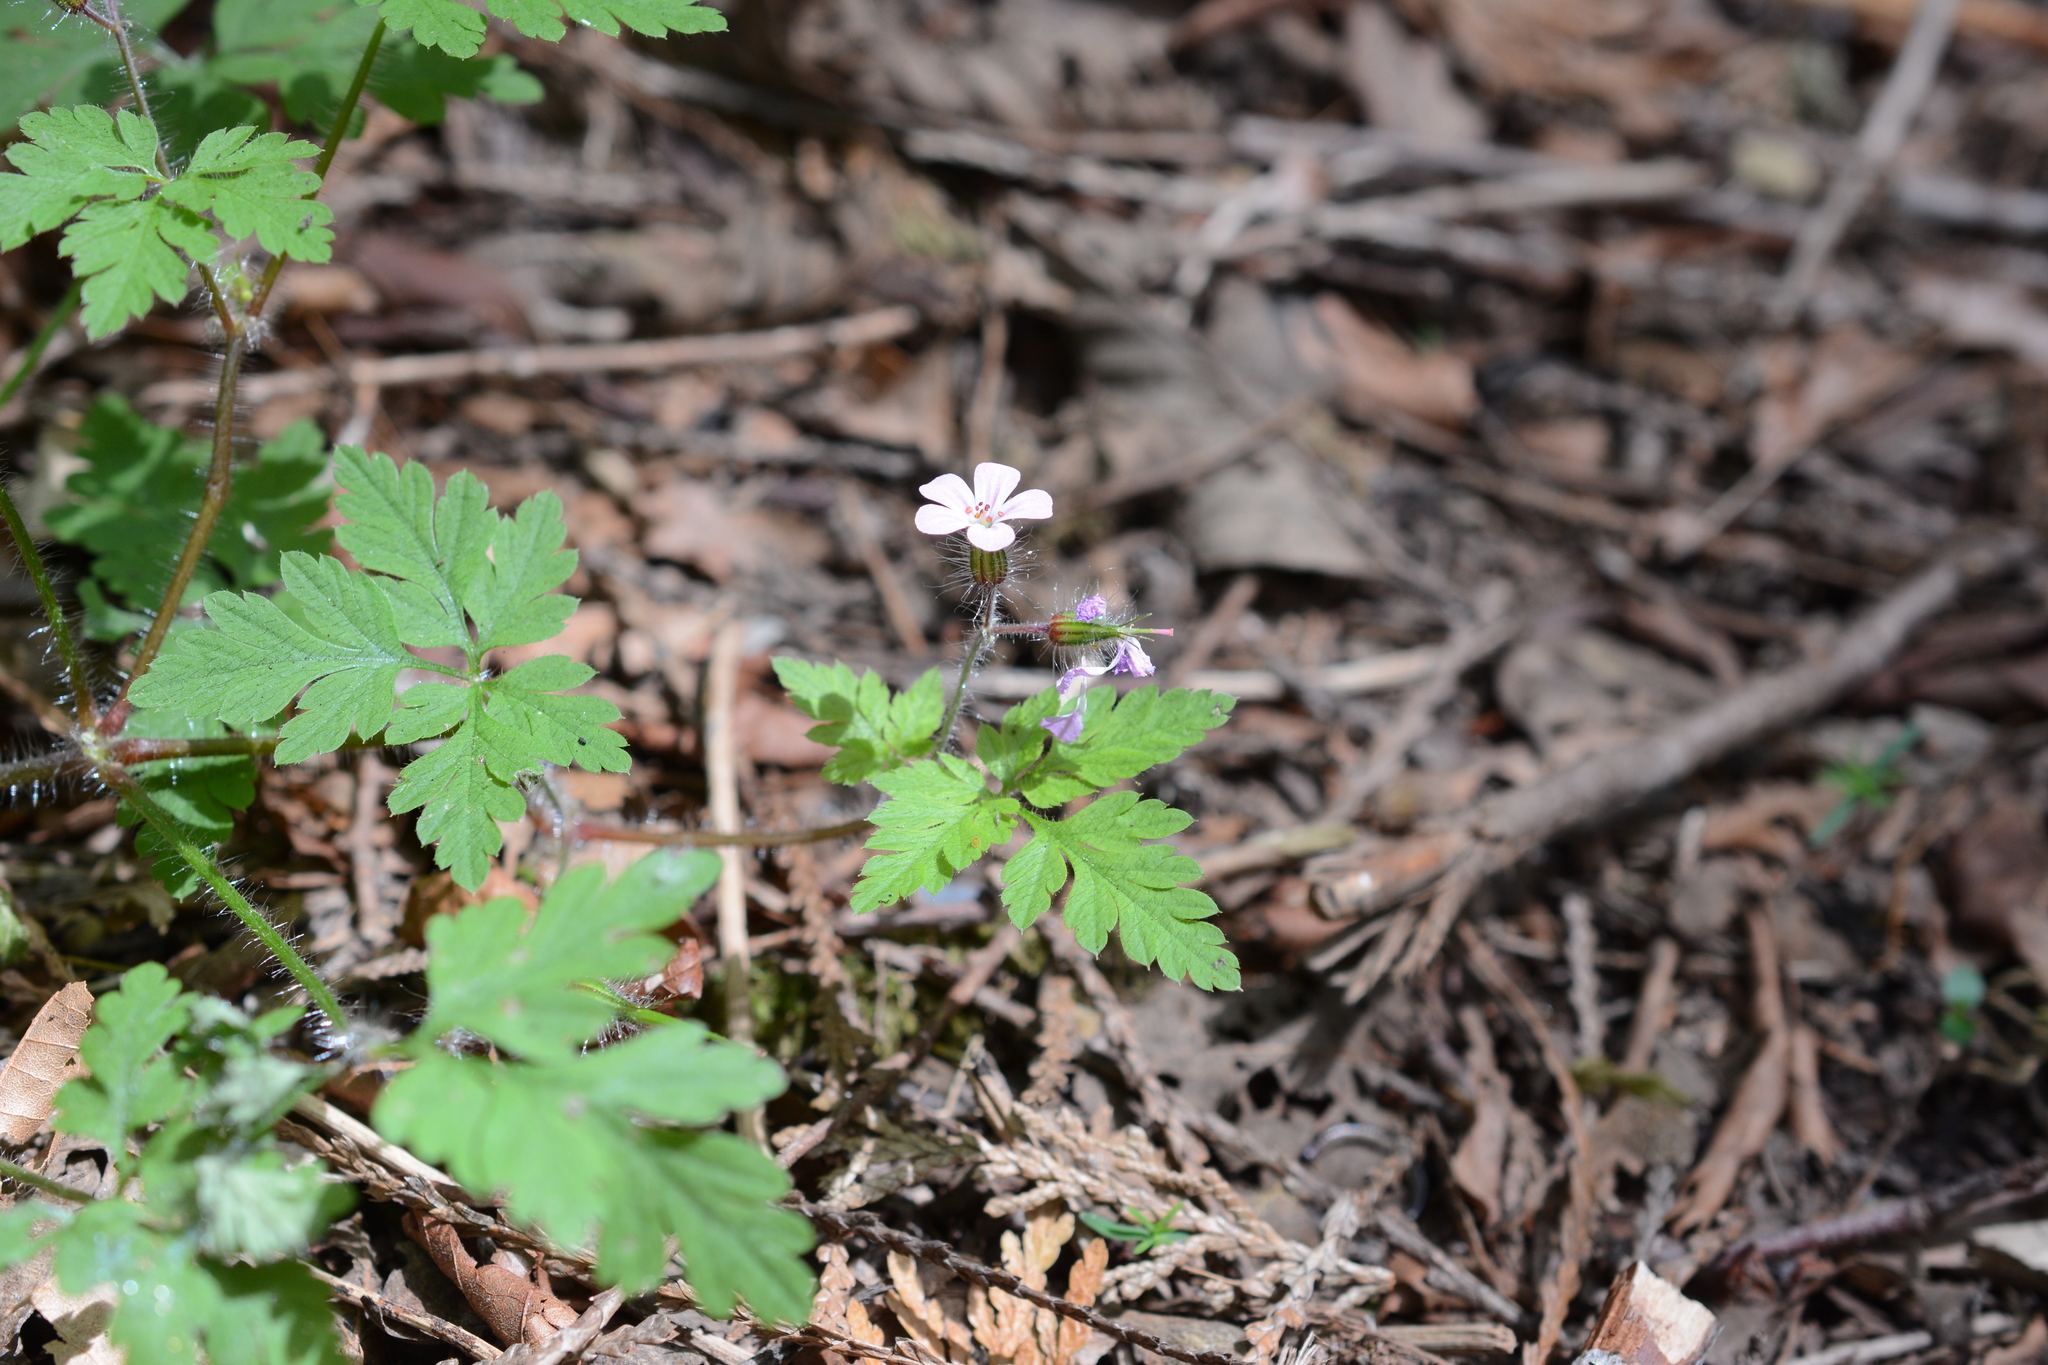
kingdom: Plantae
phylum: Tracheophyta
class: Magnoliopsida
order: Geraniales
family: Geraniaceae
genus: Geranium
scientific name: Geranium robertianum
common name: Herb-robert
